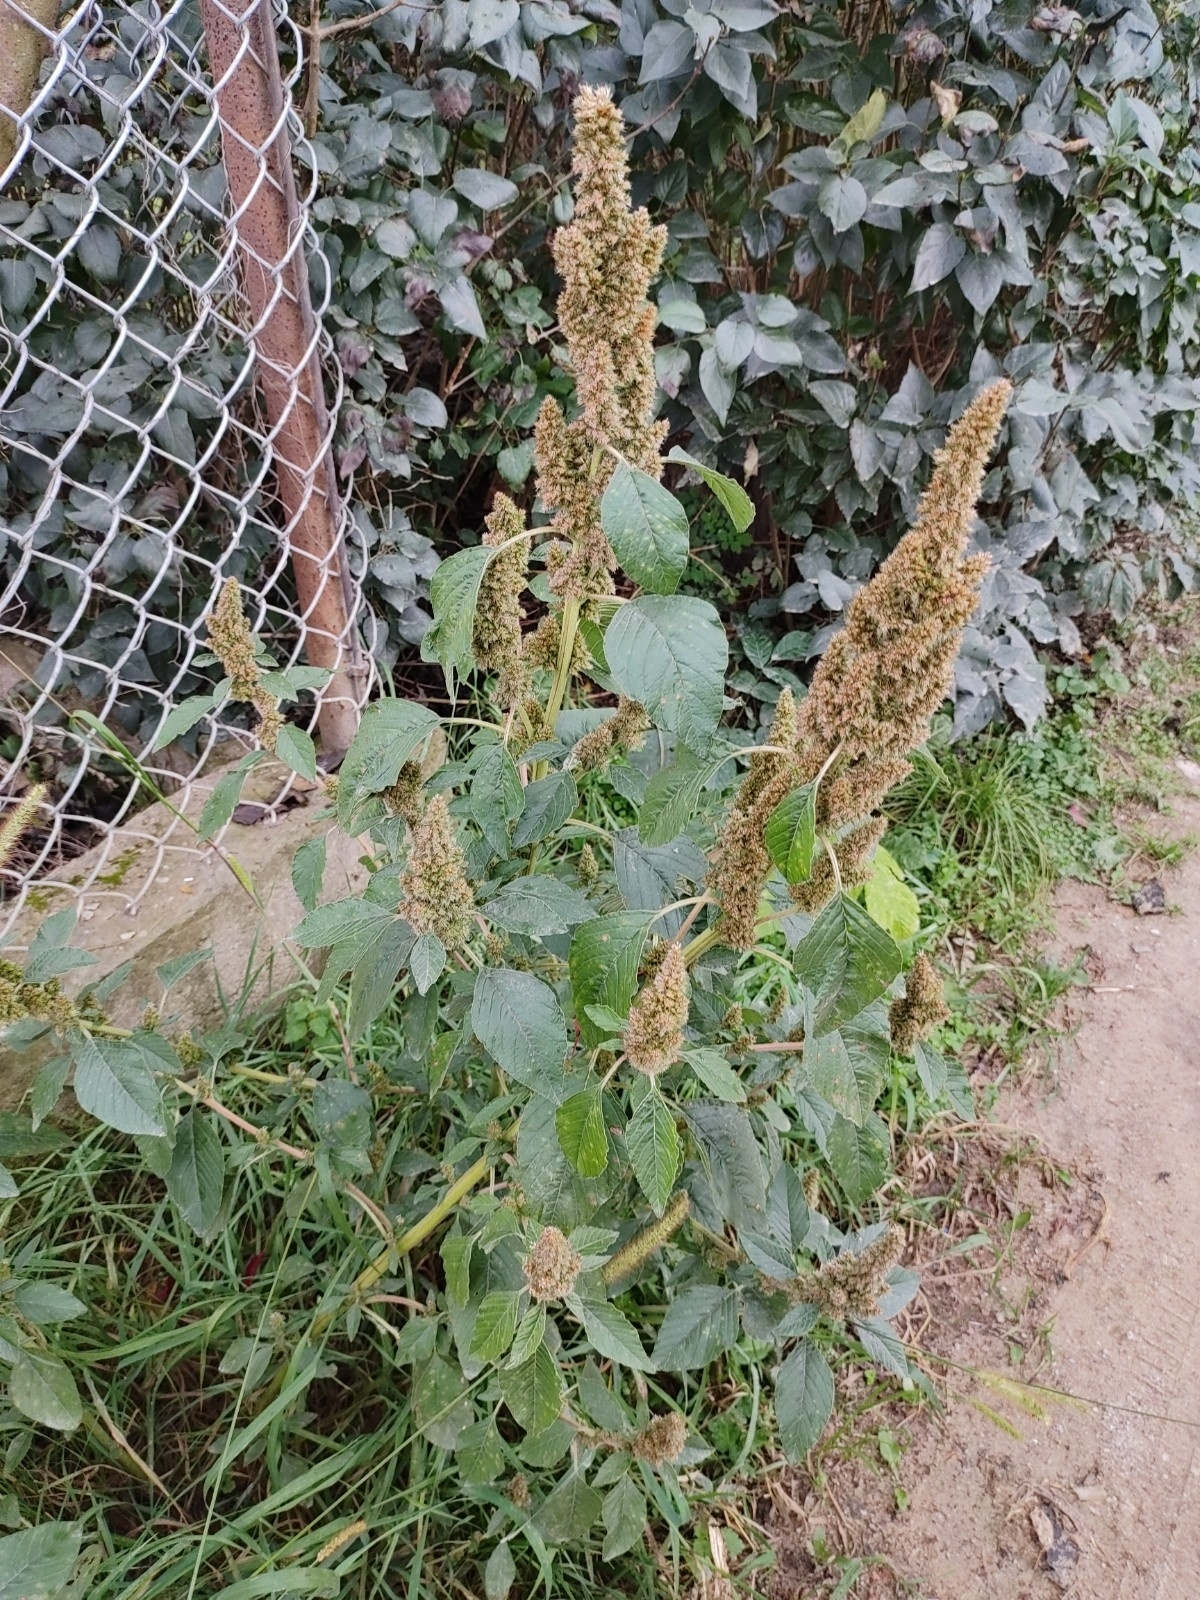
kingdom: Plantae
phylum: Tracheophyta
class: Magnoliopsida
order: Caryophyllales
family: Amaranthaceae
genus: Amaranthus
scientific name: Amaranthus retroflexus
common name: Redroot amaranth
